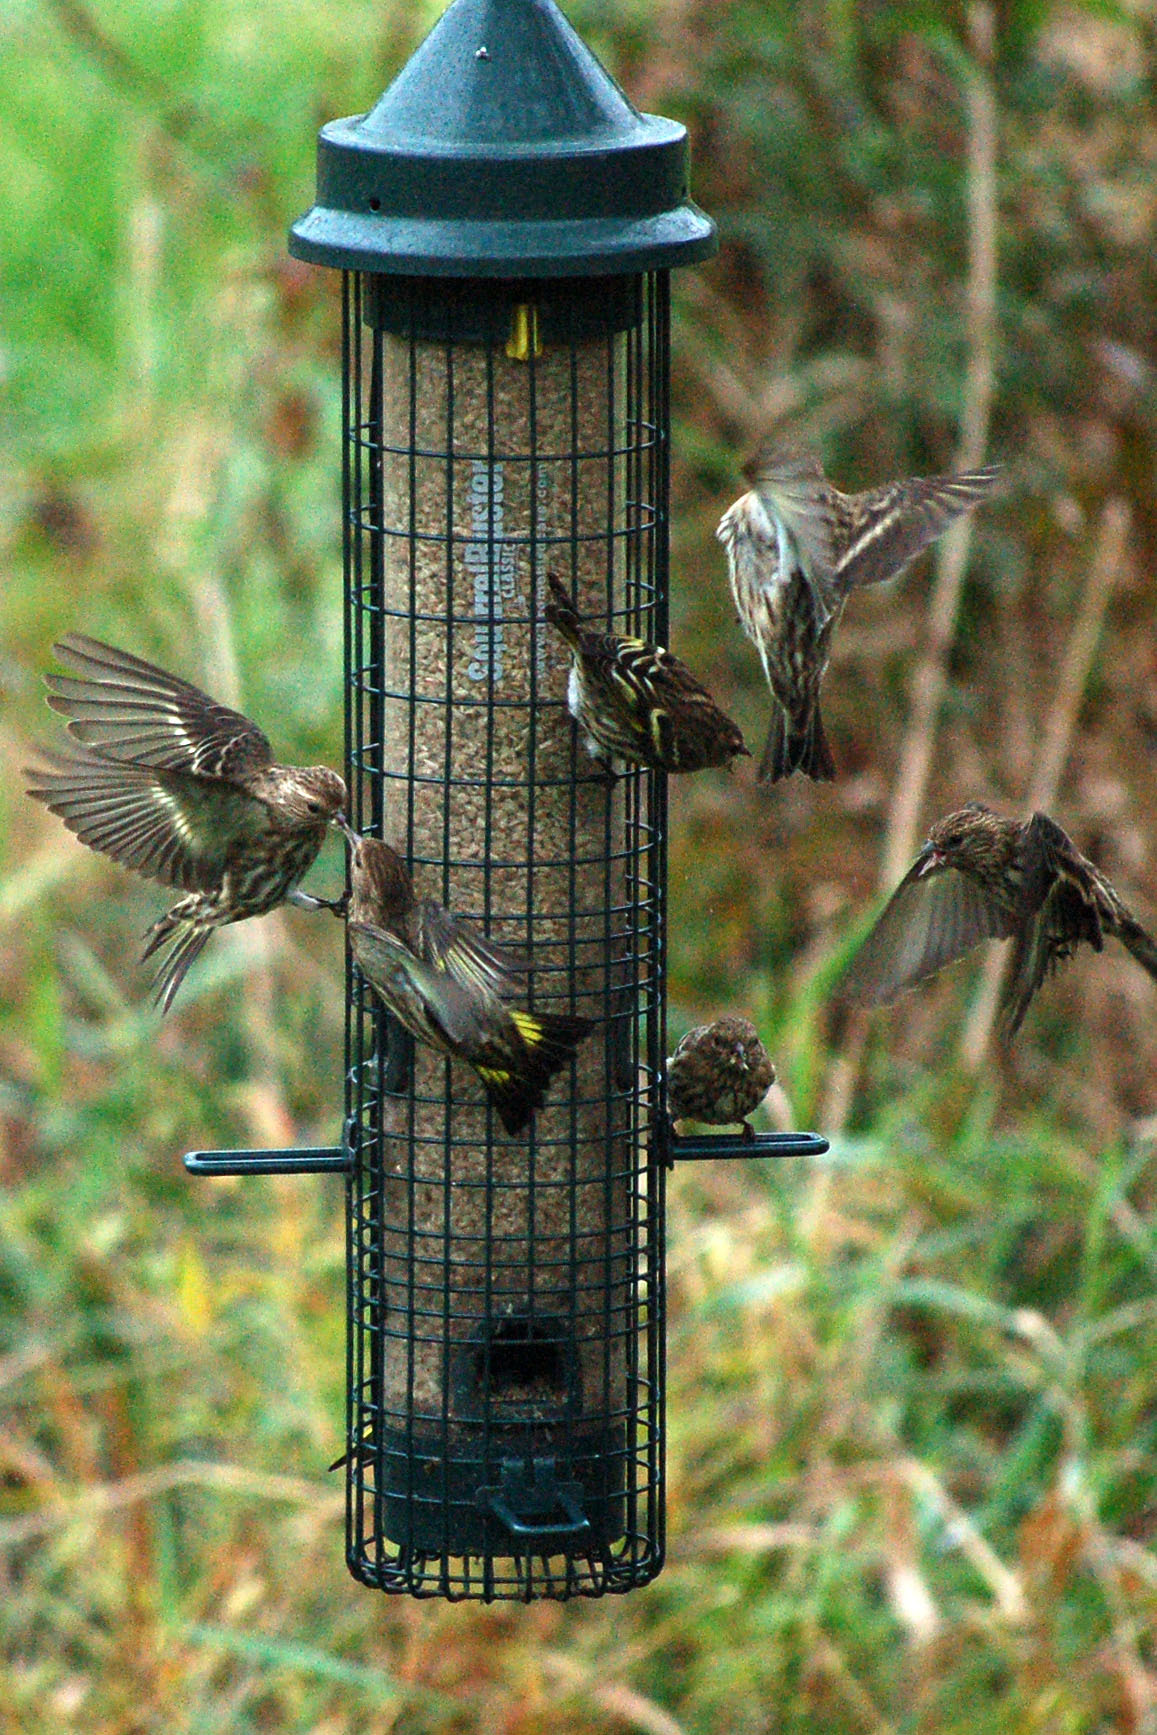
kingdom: Animalia
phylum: Chordata
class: Aves
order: Passeriformes
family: Fringillidae
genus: Spinus
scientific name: Spinus pinus
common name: Pine siskin
